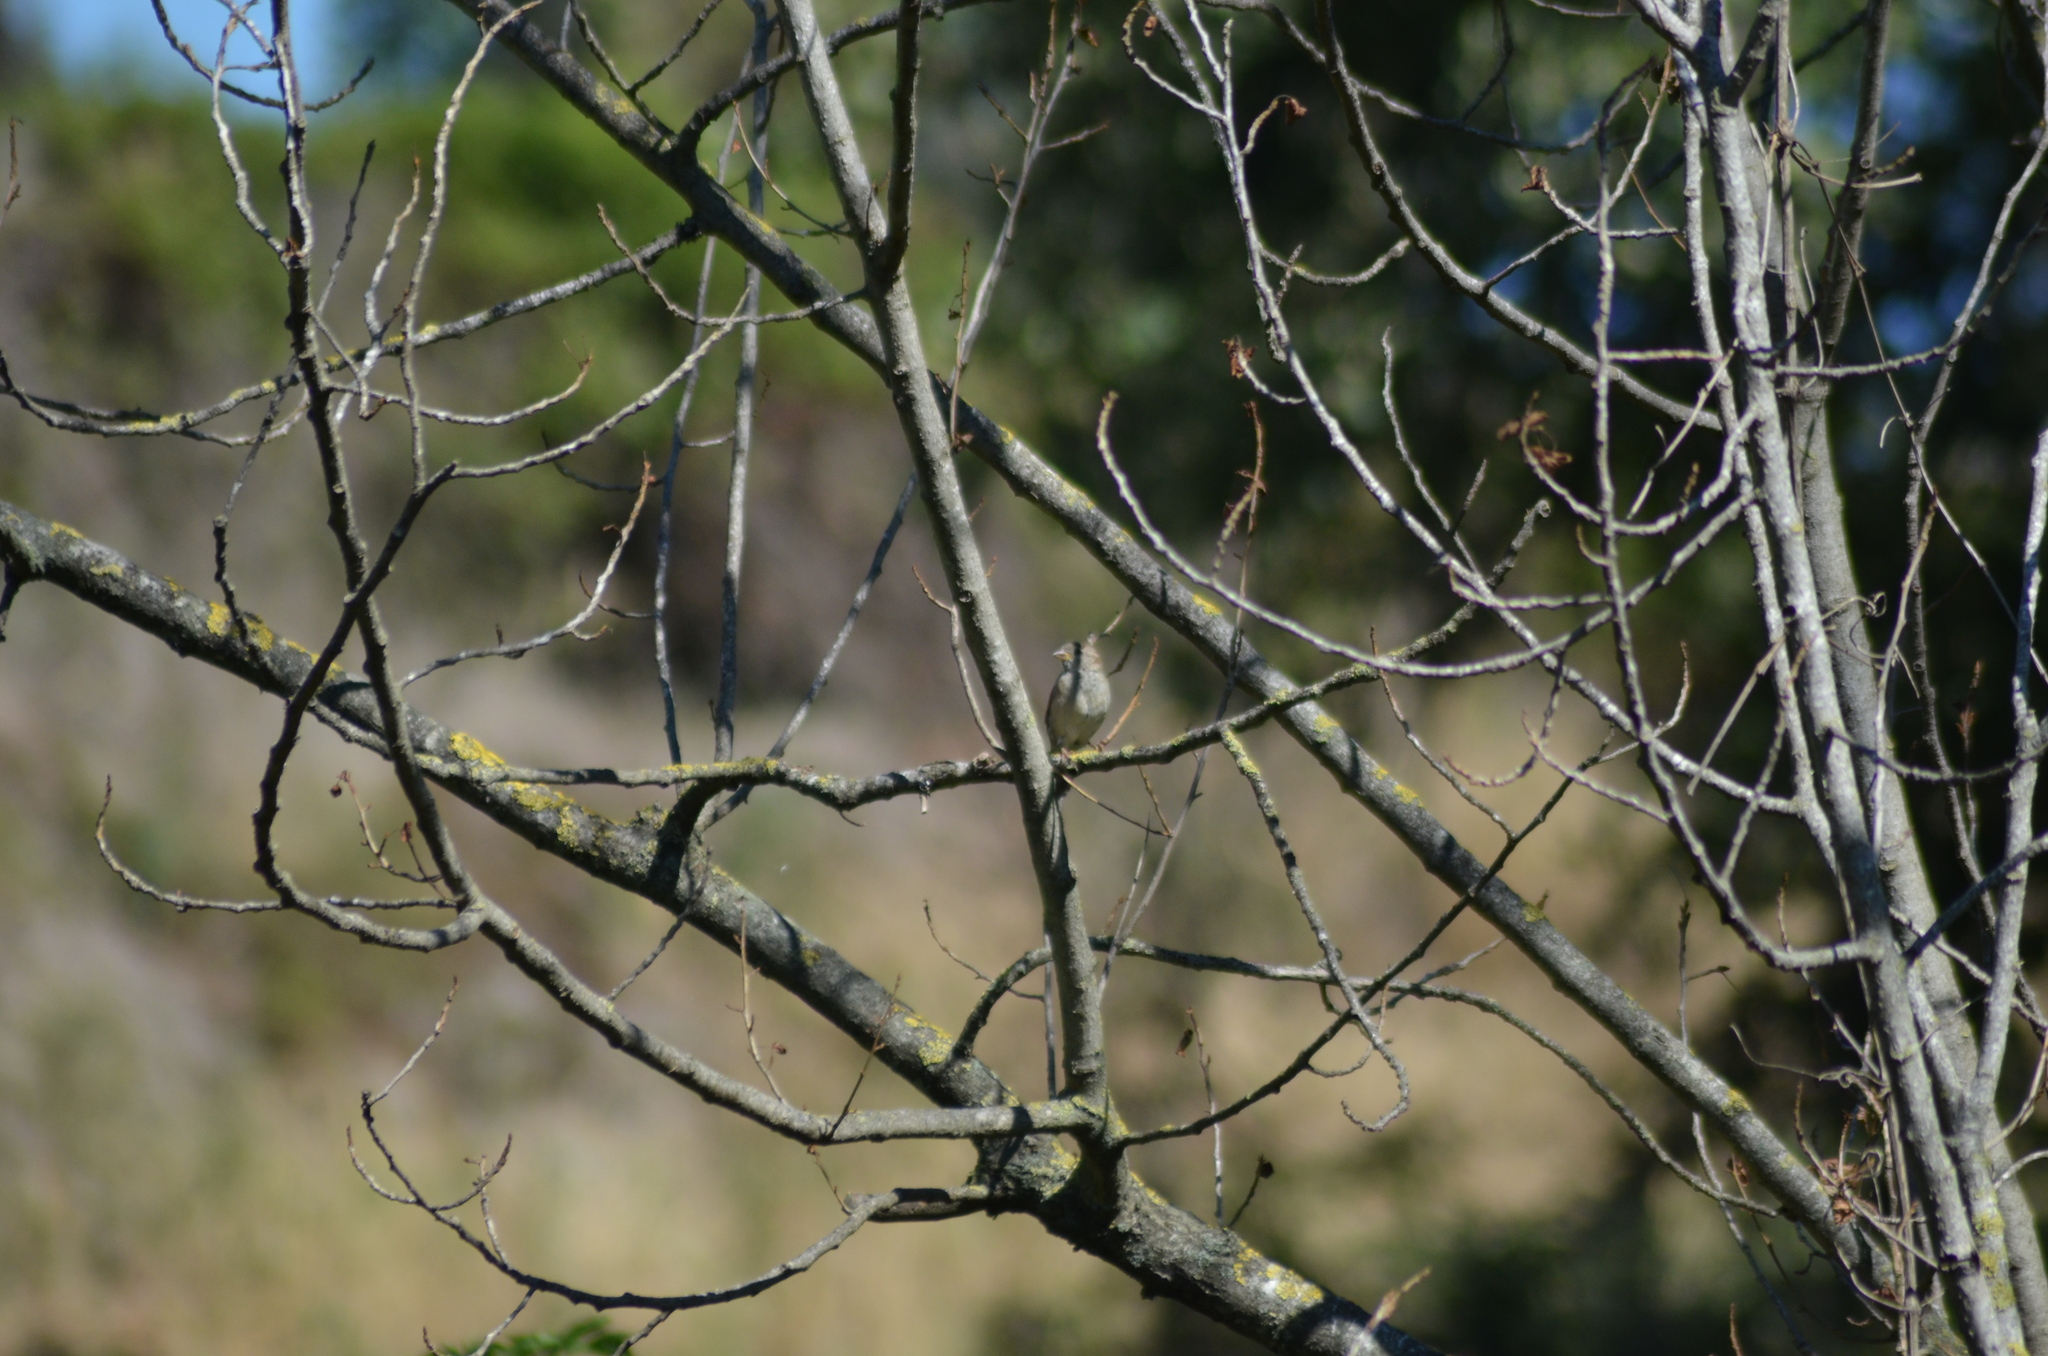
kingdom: Animalia
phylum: Chordata
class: Aves
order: Passeriformes
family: Passeridae
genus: Passer
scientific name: Passer domesticus
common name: House sparrow
